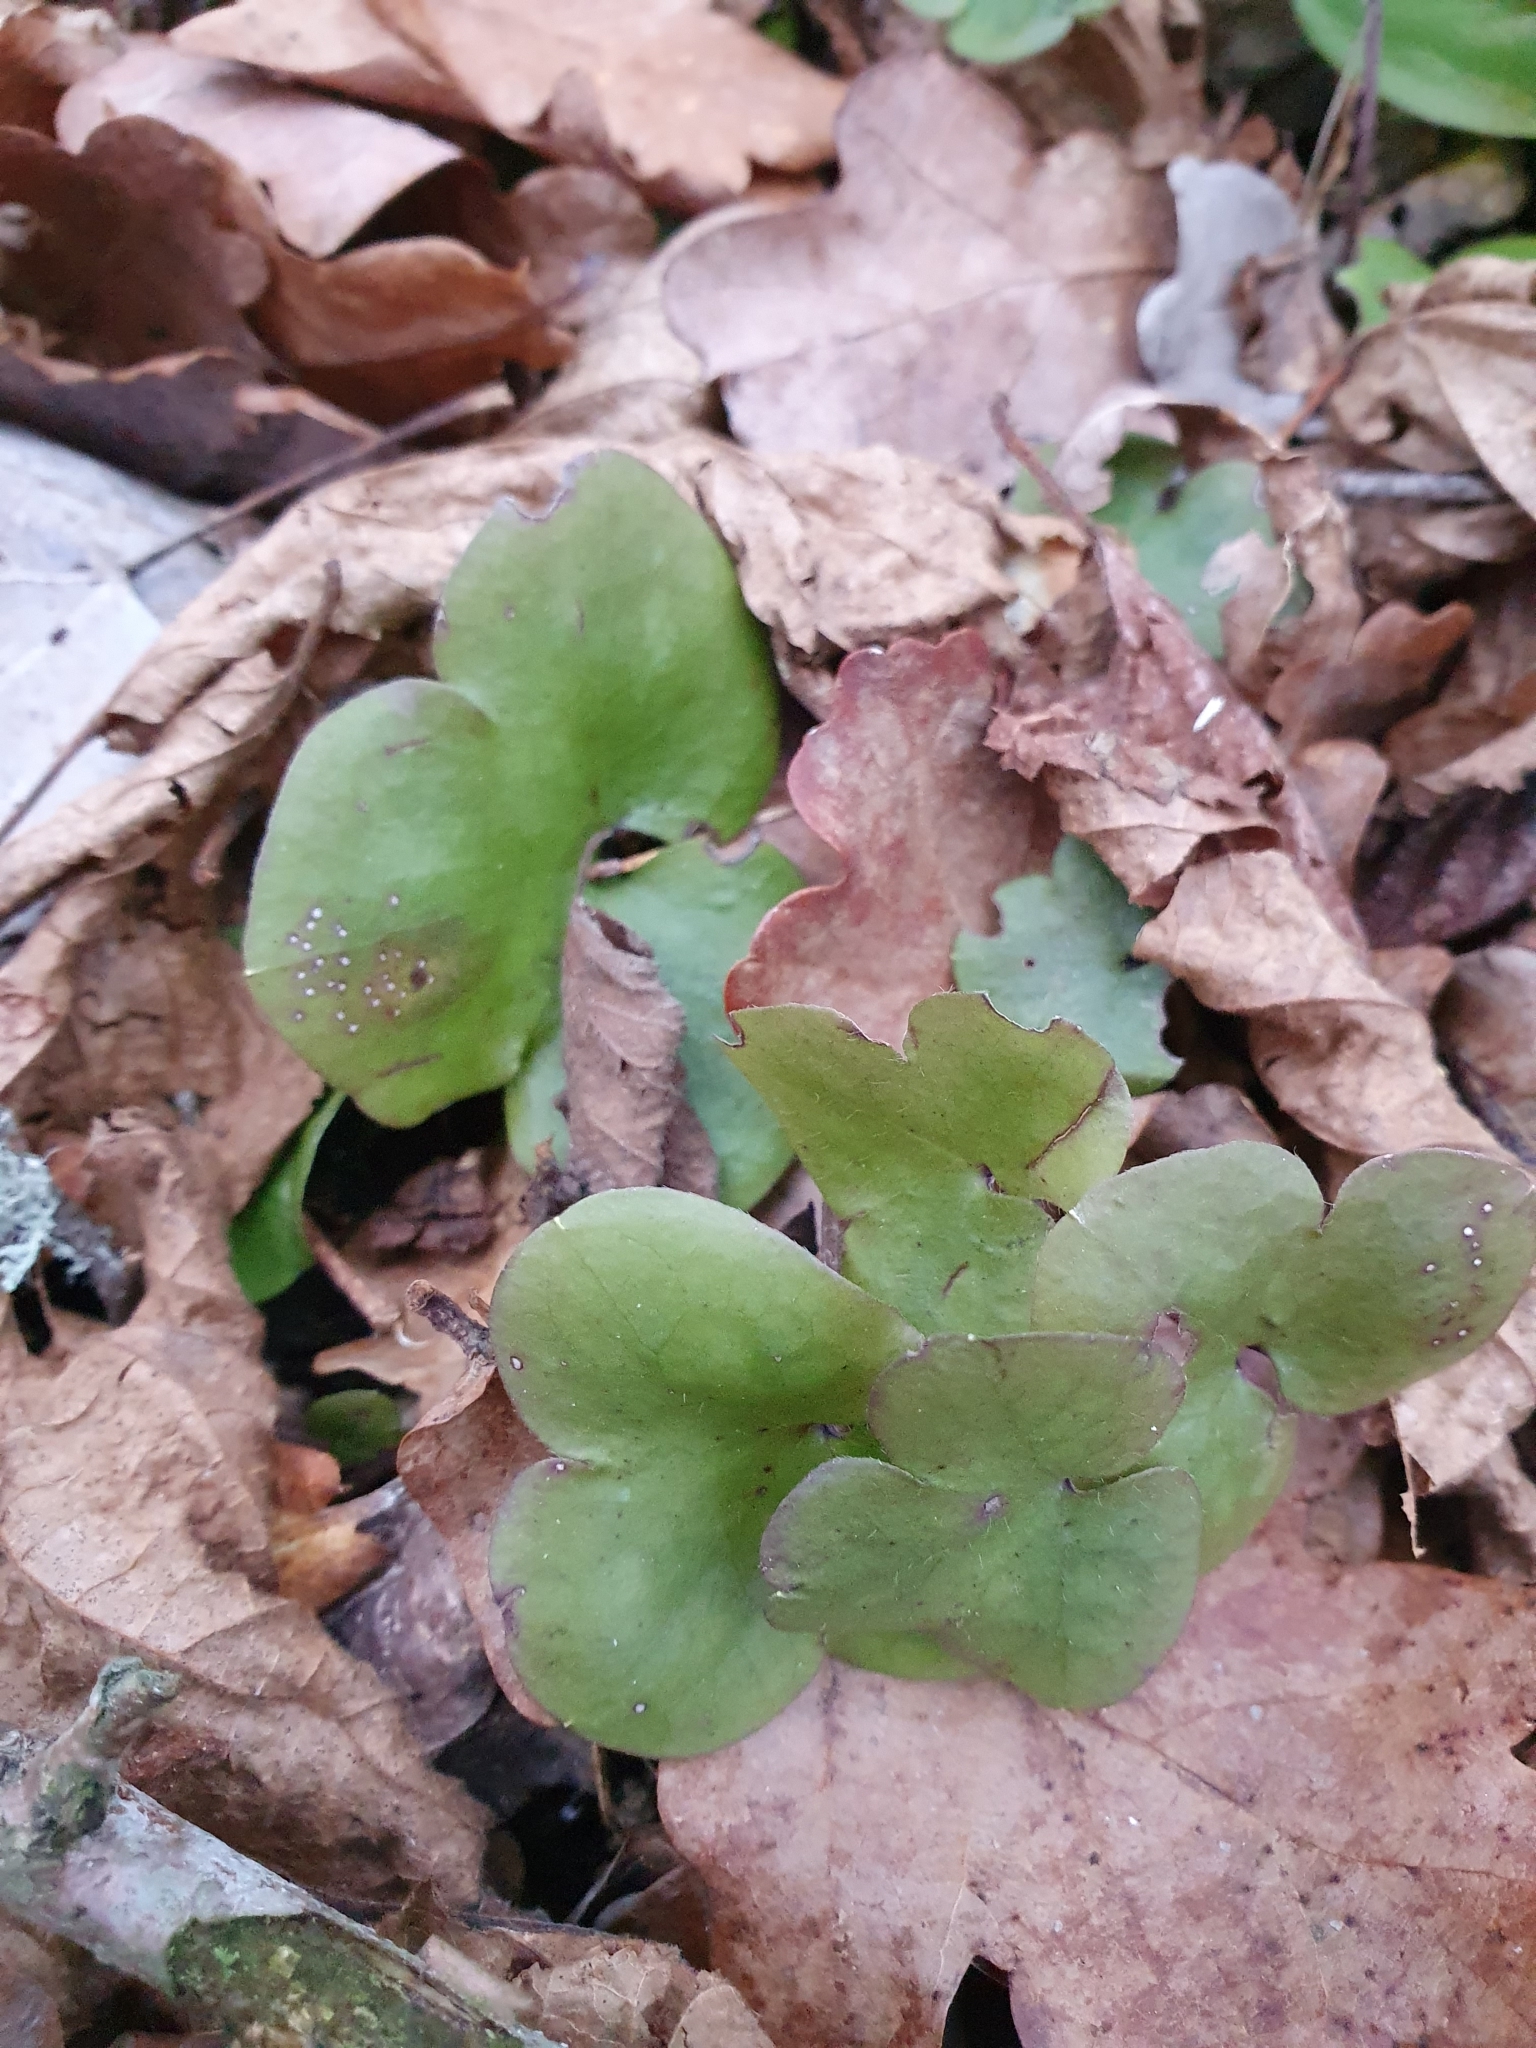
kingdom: Plantae
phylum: Tracheophyta
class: Magnoliopsida
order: Ranunculales
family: Ranunculaceae
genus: Hepatica
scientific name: Hepatica nobilis
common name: Liverleaf
